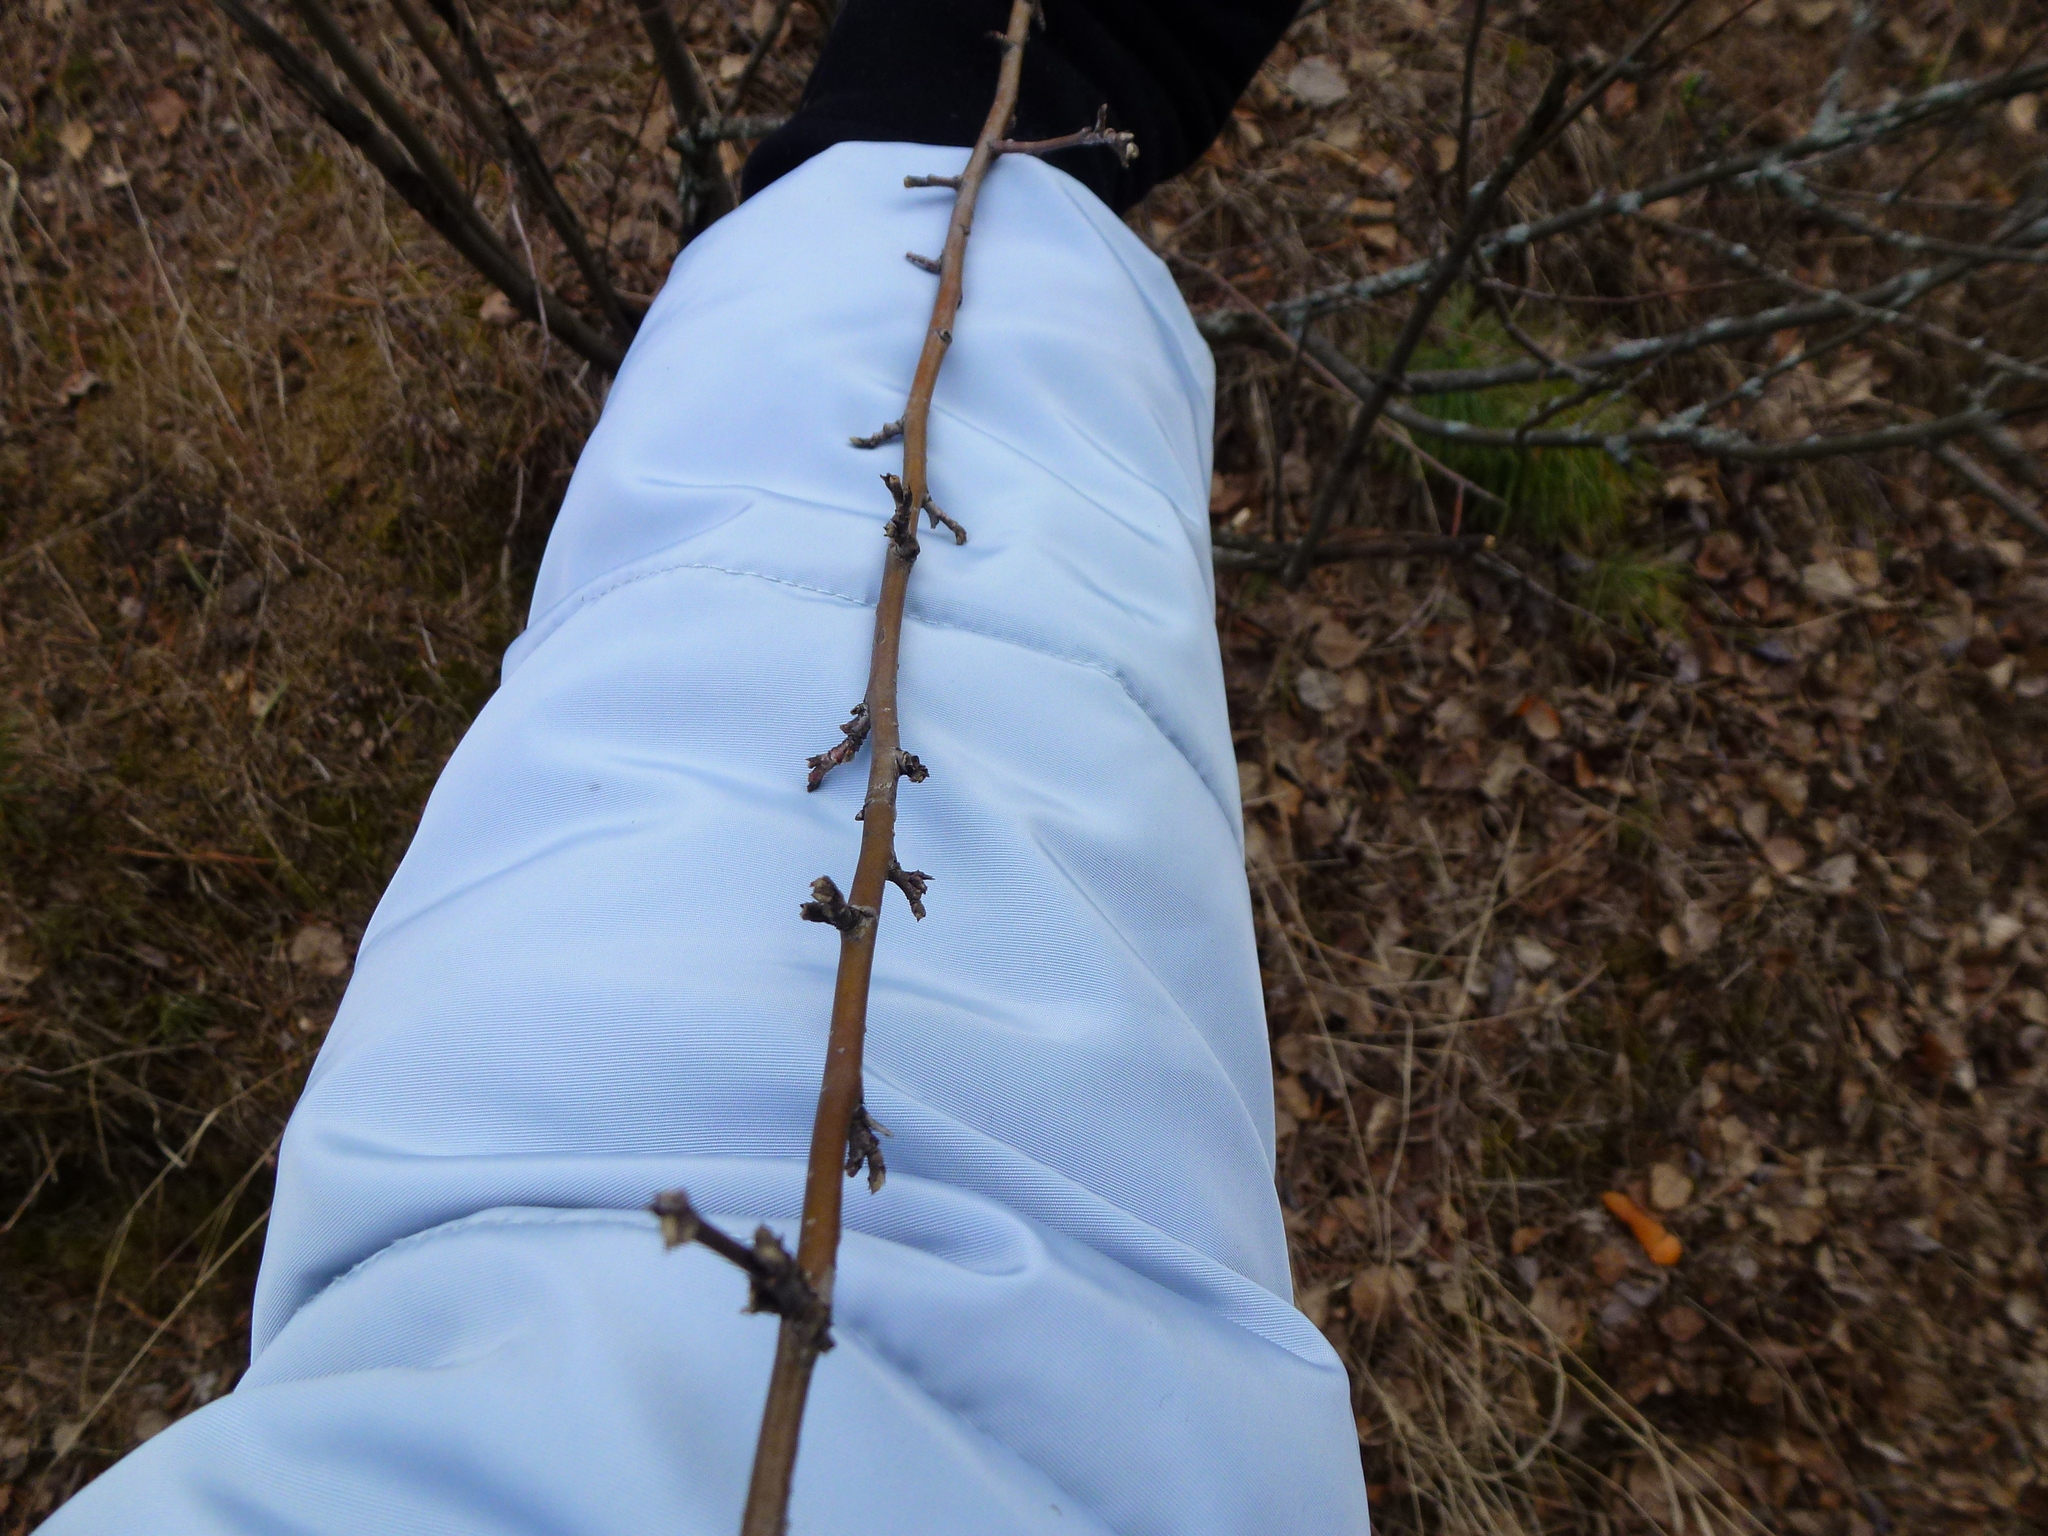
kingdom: Plantae
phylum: Tracheophyta
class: Magnoliopsida
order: Rosales
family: Rosaceae
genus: Cotoneaster
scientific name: Cotoneaster melanocarpus
